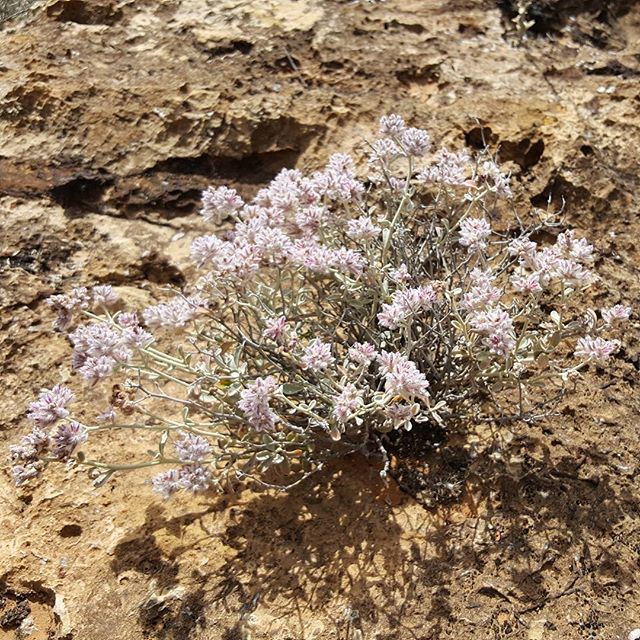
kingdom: Plantae
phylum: Tracheophyta
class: Magnoliopsida
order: Caryophyllales
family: Amaranthaceae
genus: Ptilotus
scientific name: Ptilotus obovatus
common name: Cottonbush
